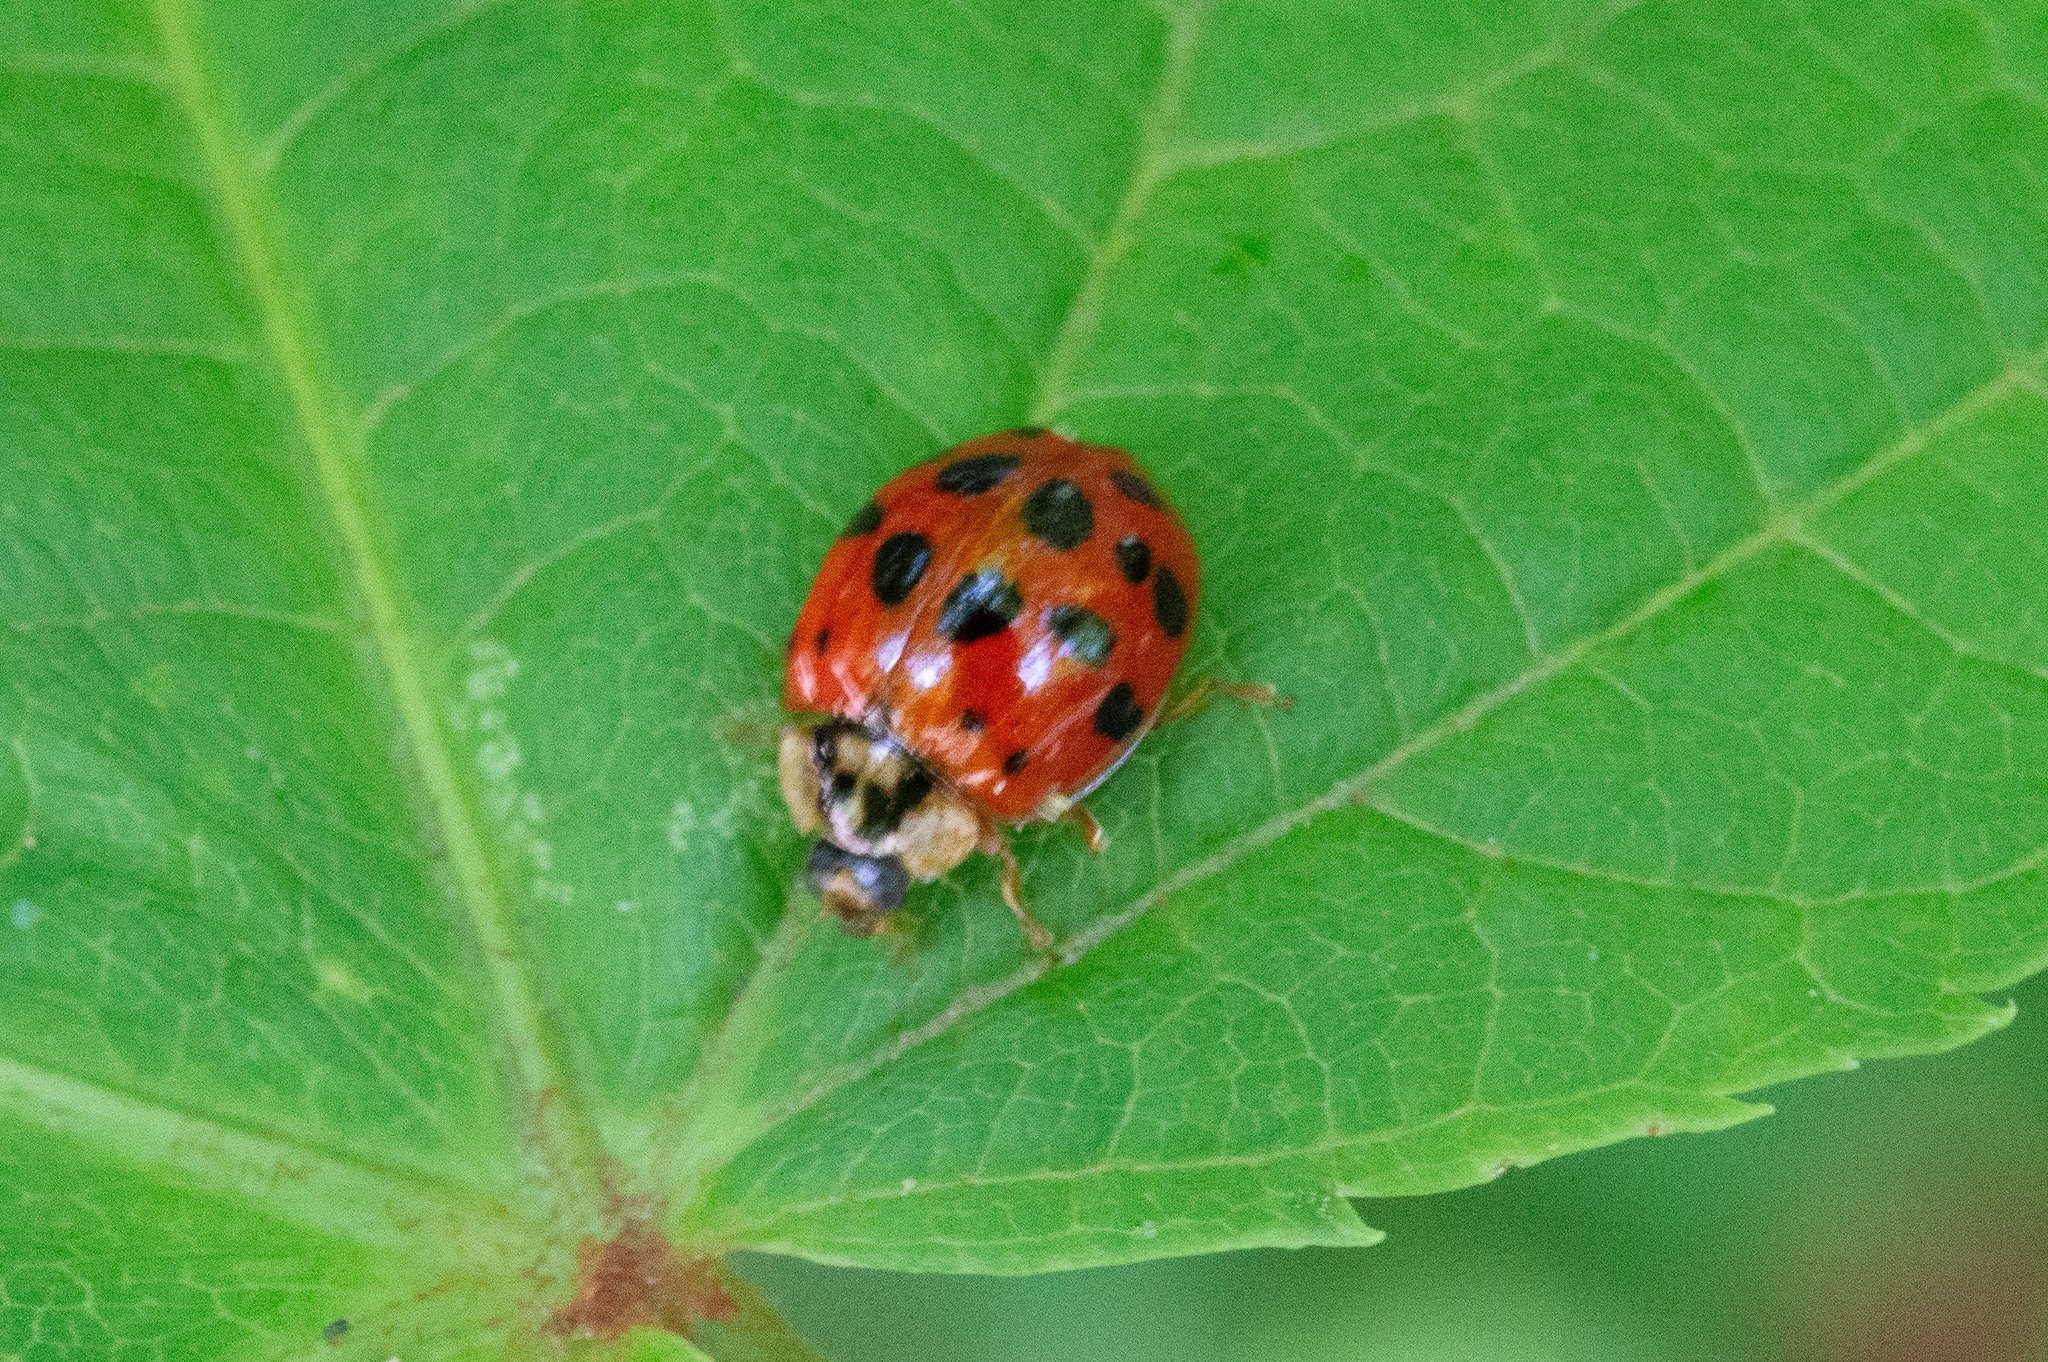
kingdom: Animalia
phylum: Arthropoda
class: Insecta
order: Coleoptera
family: Coccinellidae
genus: Harmonia
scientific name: Harmonia axyridis
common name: Harlequin ladybird
